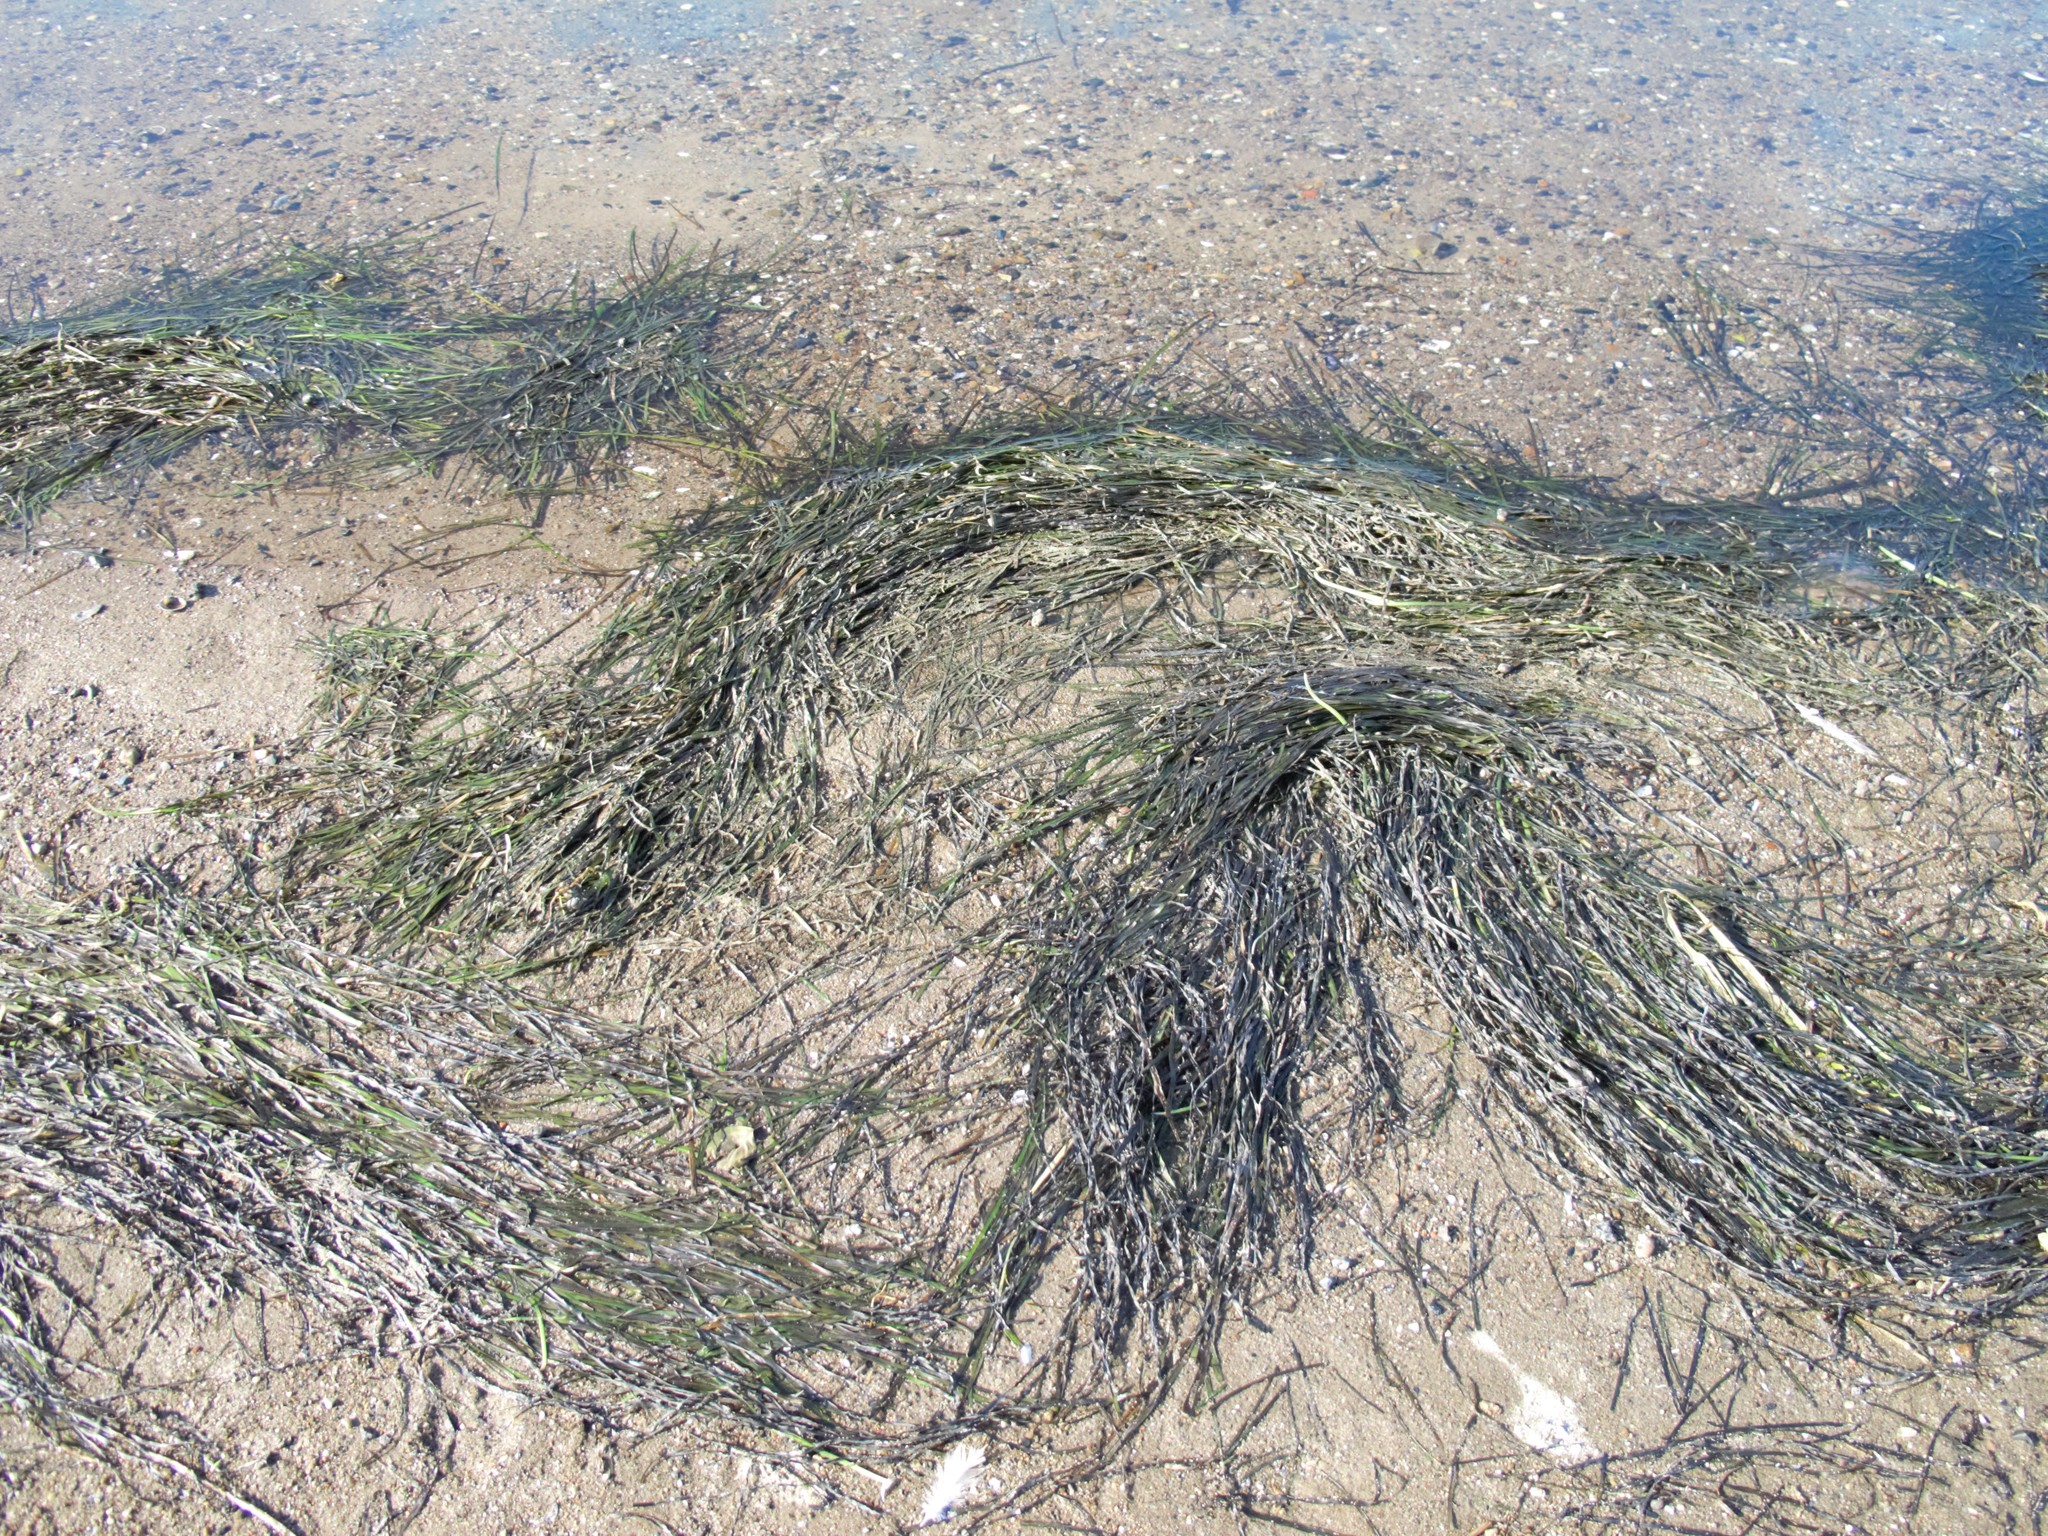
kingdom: Plantae
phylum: Tracheophyta
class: Liliopsida
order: Alismatales
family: Zosteraceae
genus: Zostera
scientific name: Zostera marina
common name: Eelgrass
